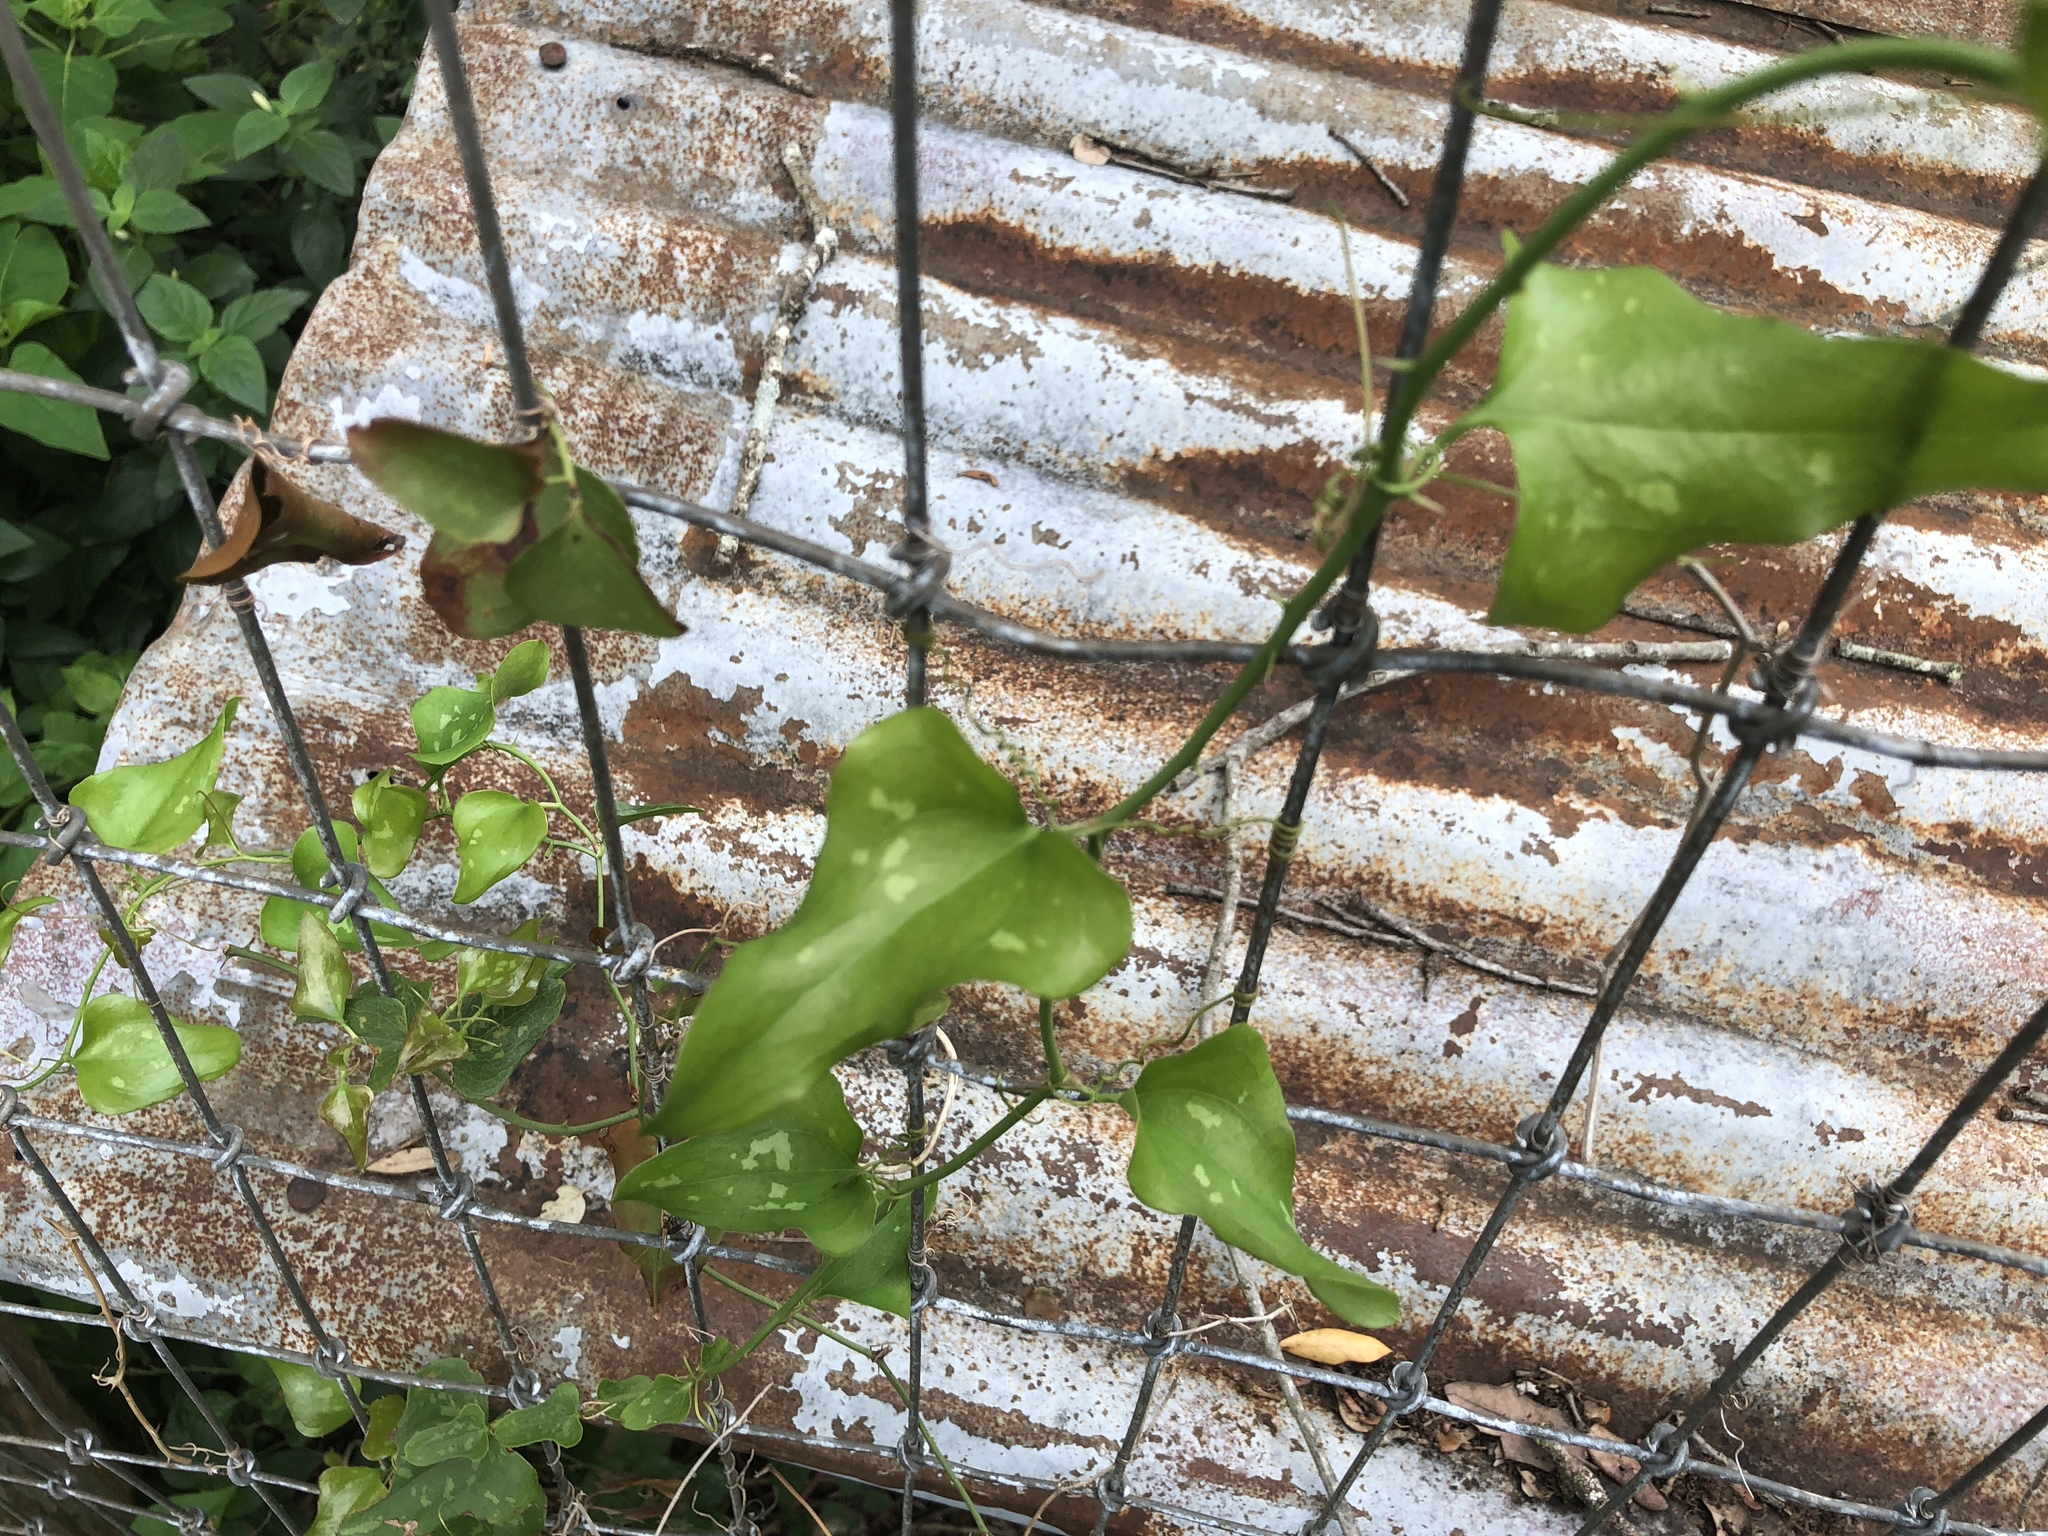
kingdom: Plantae
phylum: Tracheophyta
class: Liliopsida
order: Liliales
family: Smilacaceae
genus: Smilax
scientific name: Smilax bona-nox
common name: Catbrier
